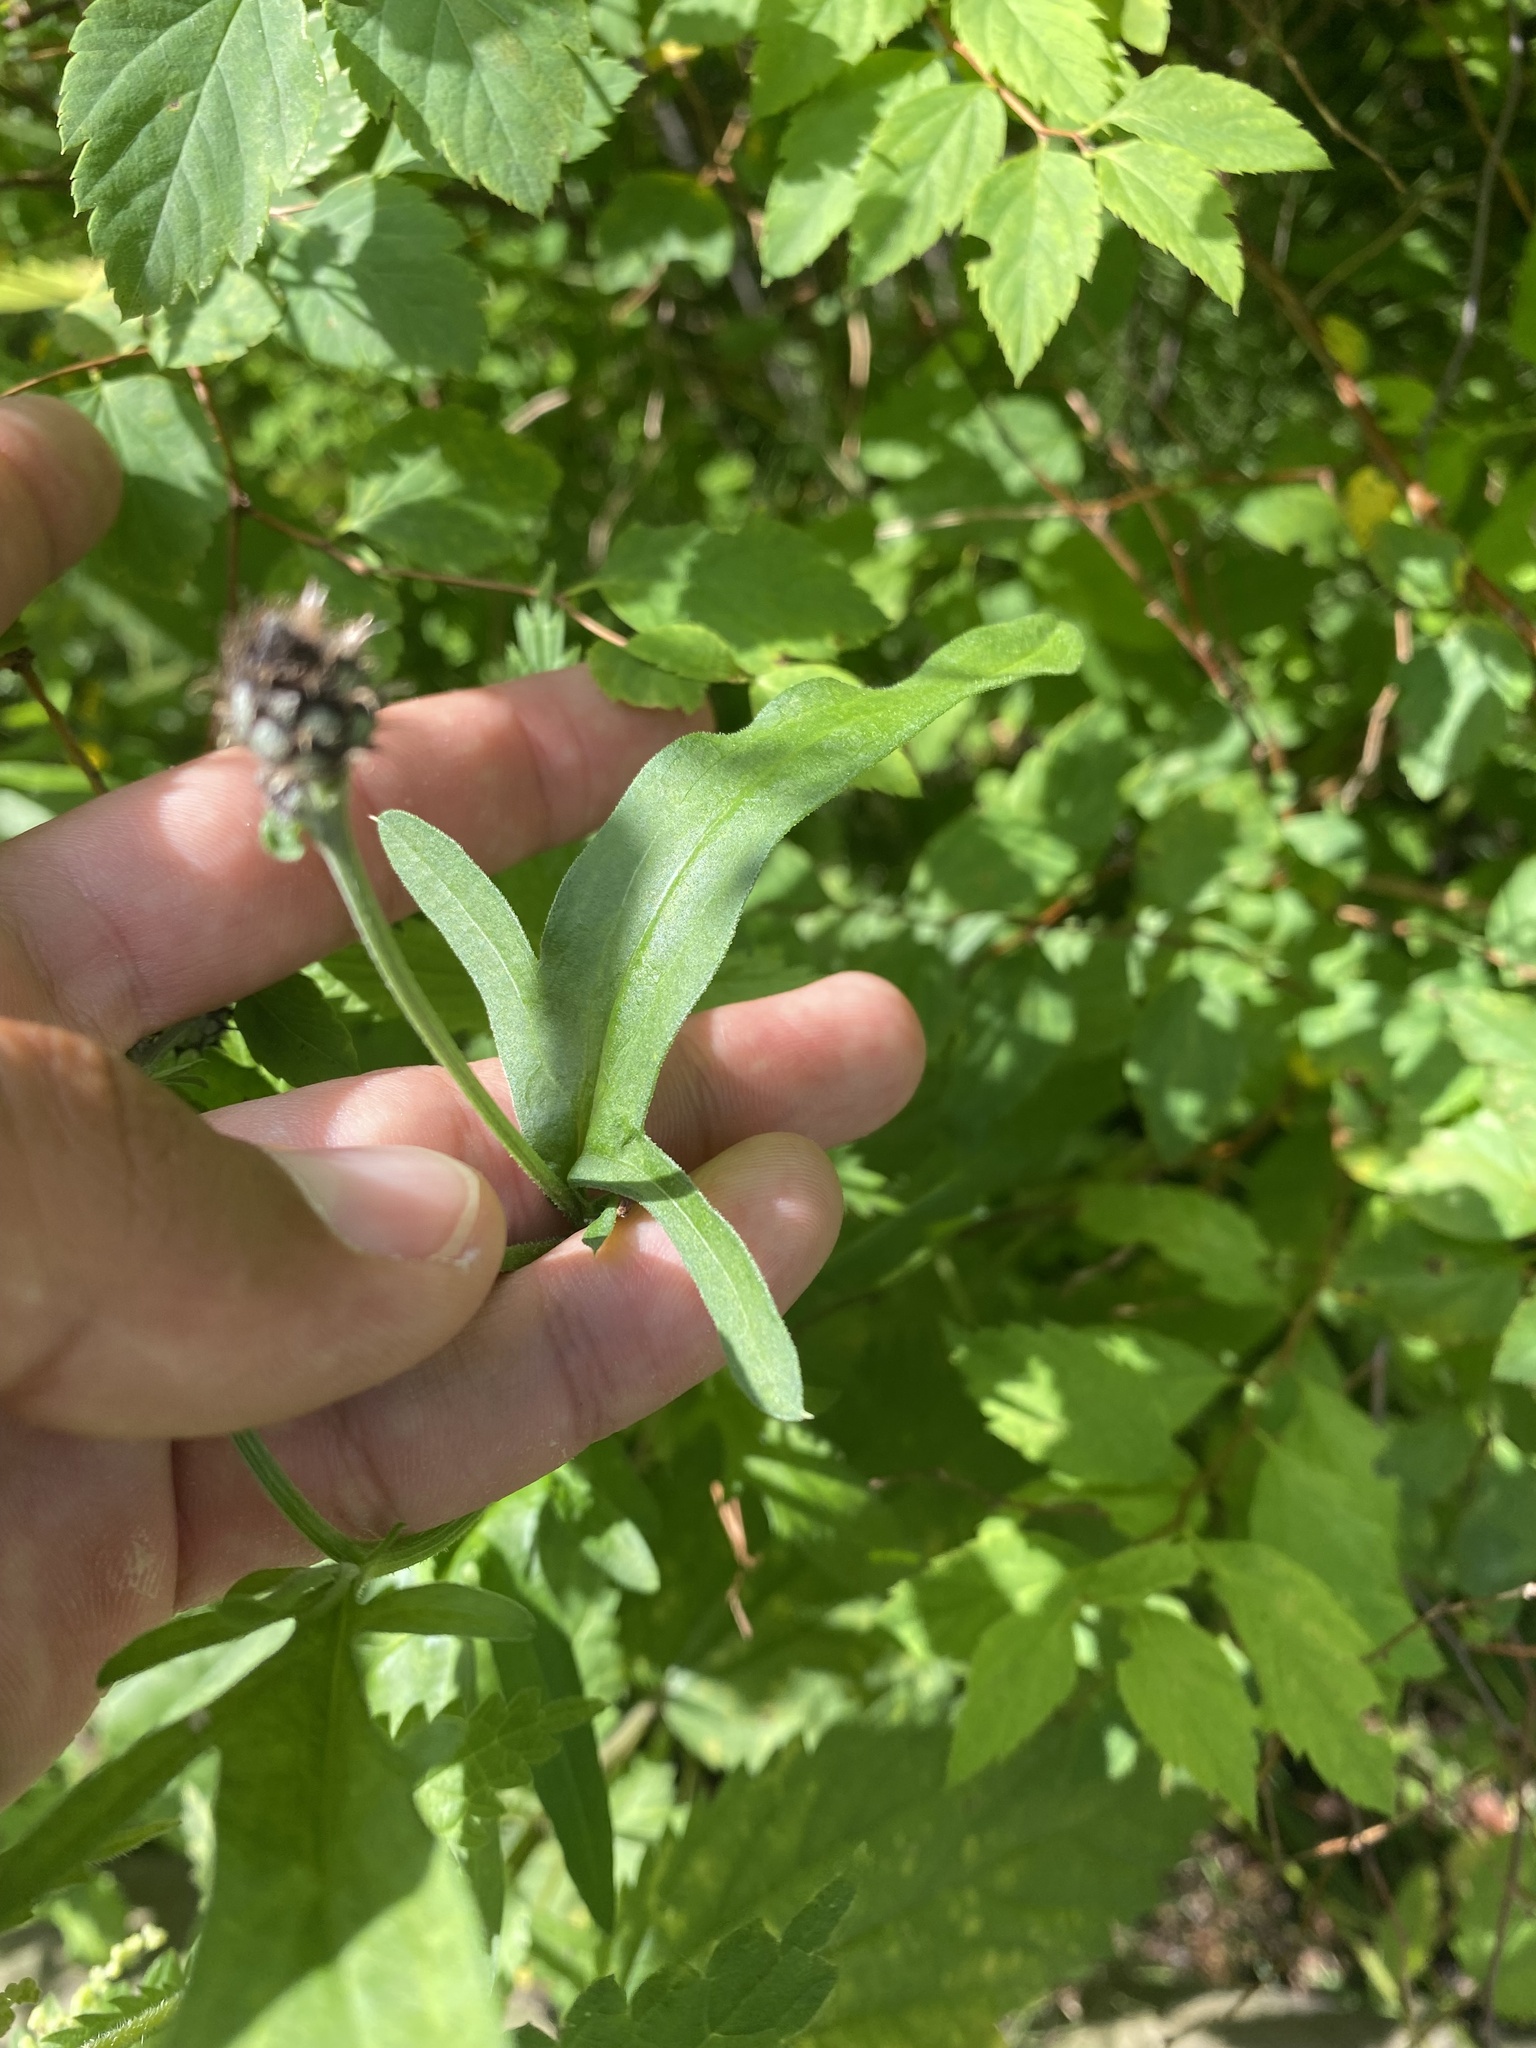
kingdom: Plantae
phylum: Tracheophyta
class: Magnoliopsida
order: Asterales
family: Asteraceae
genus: Centaurea
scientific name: Centaurea scabiosa
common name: Greater knapweed
